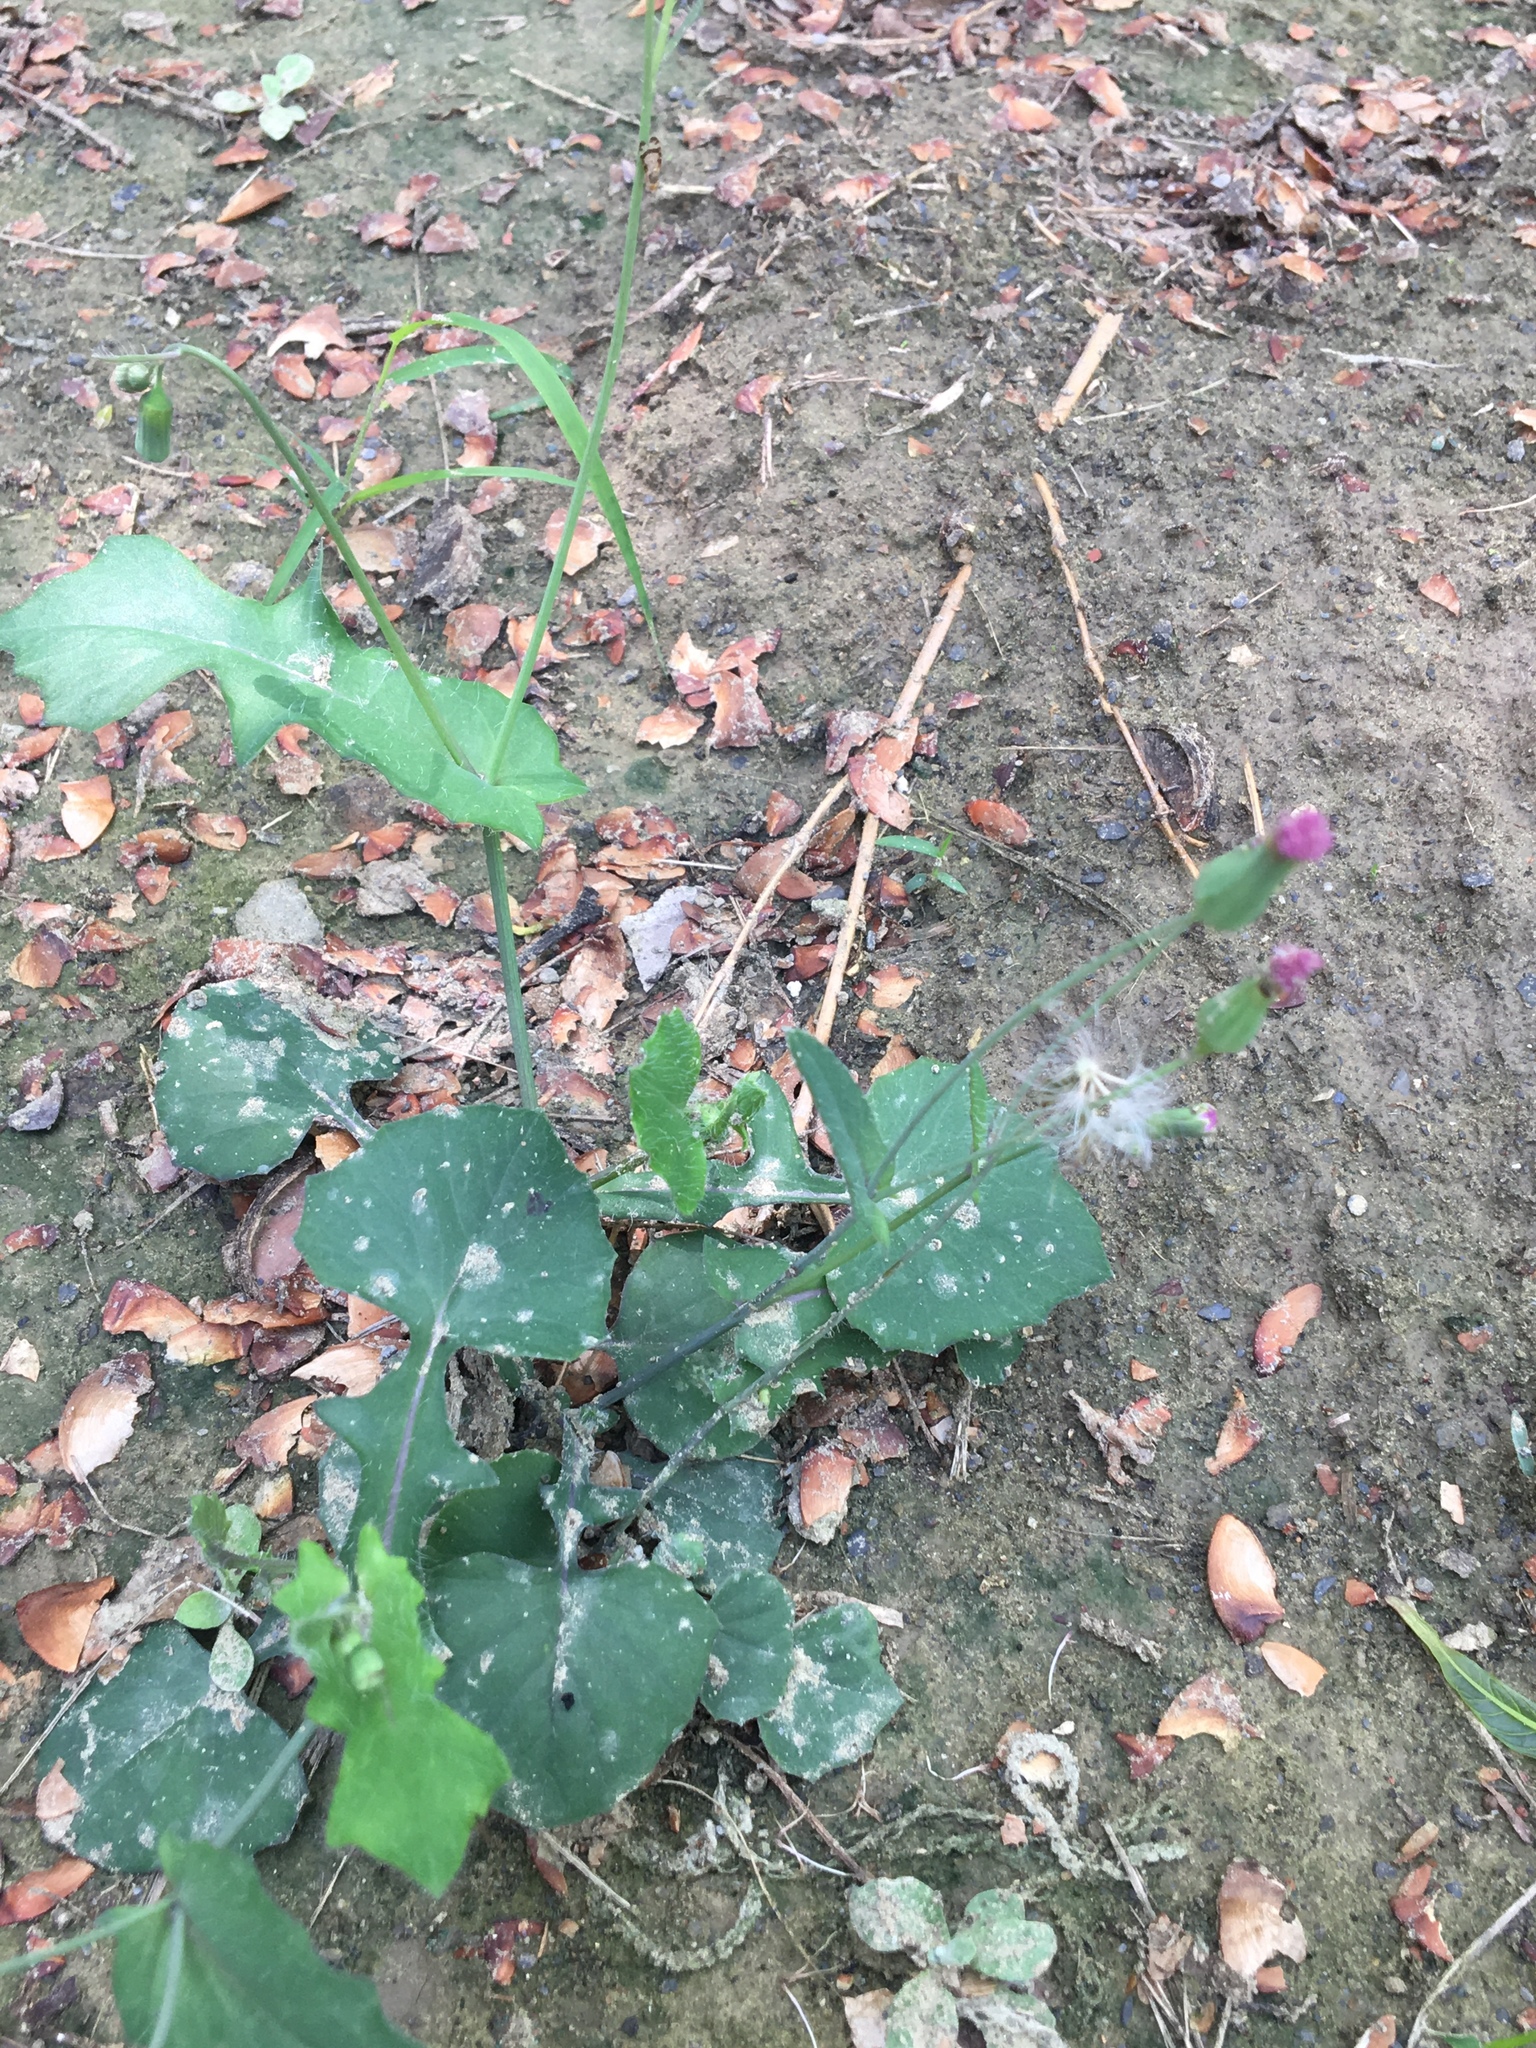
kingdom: Plantae
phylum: Tracheophyta
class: Magnoliopsida
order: Asterales
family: Asteraceae
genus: Emilia
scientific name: Emilia javanica
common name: Tassel-flower
